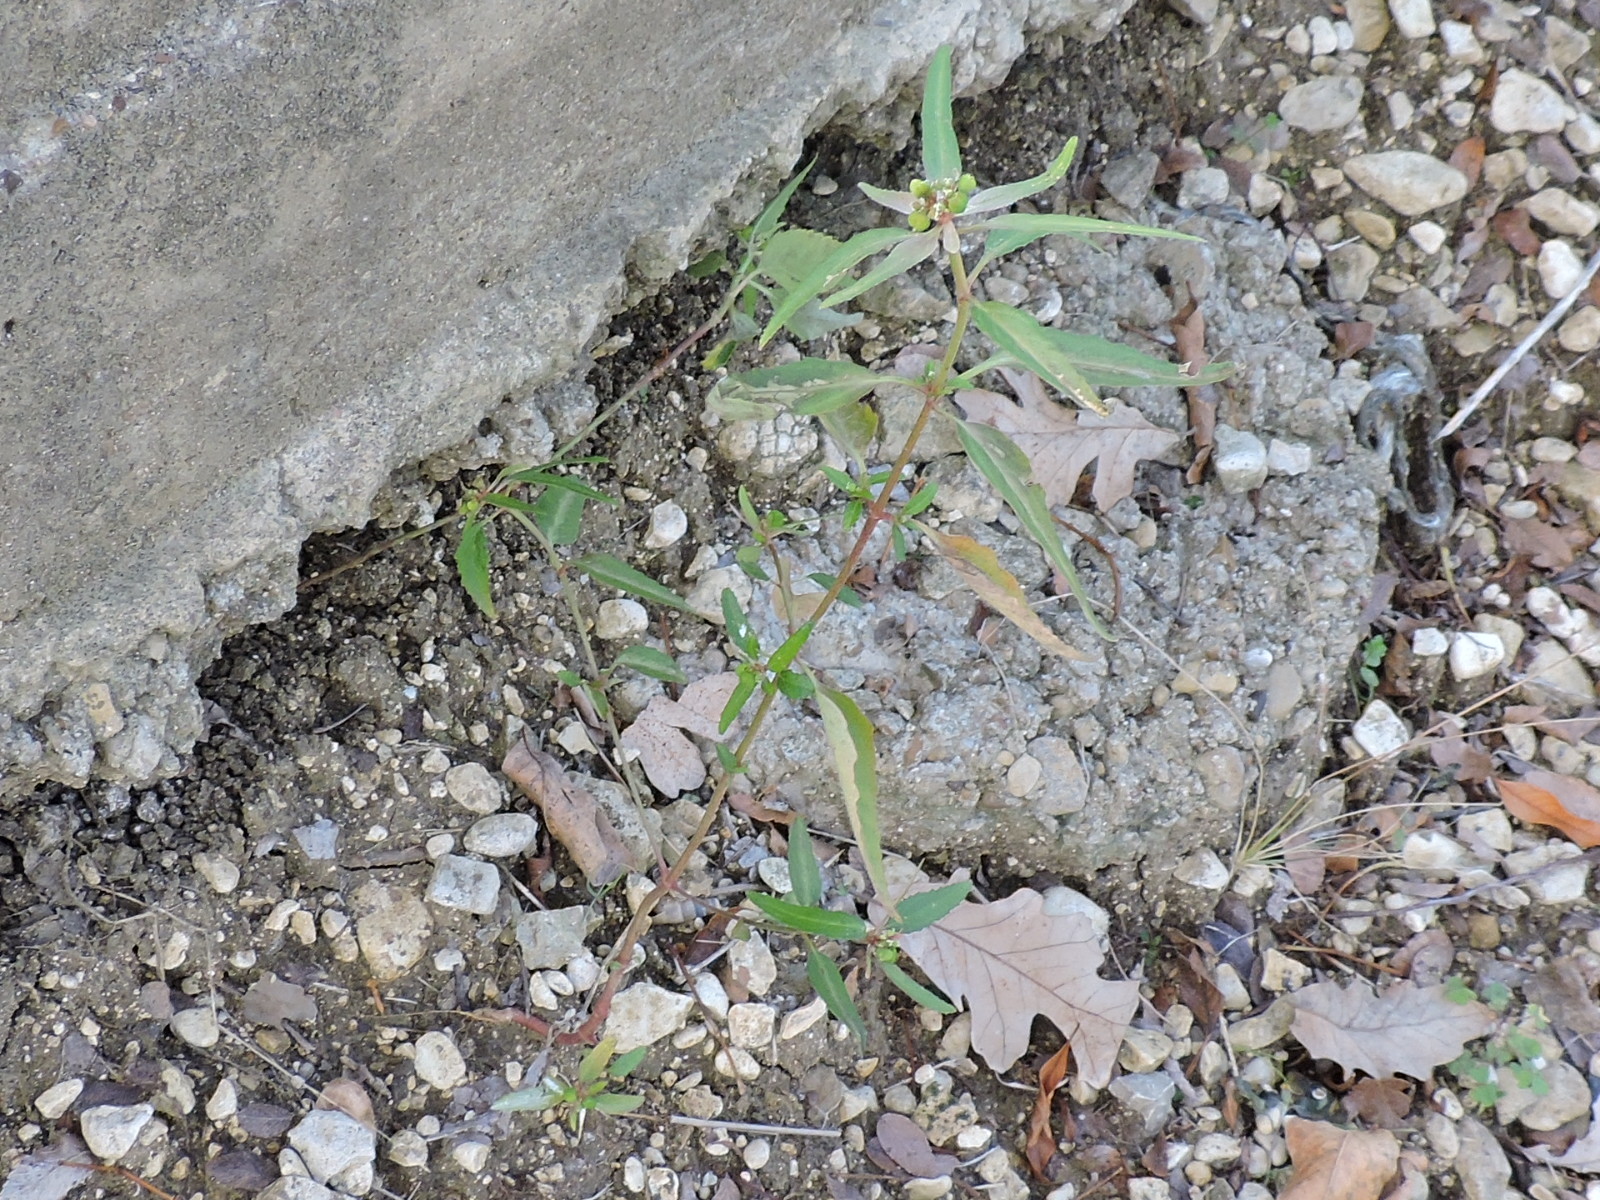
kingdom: Plantae
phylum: Tracheophyta
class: Magnoliopsida
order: Malpighiales
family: Euphorbiaceae
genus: Euphorbia
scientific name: Euphorbia dentata
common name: Dentate spurge
